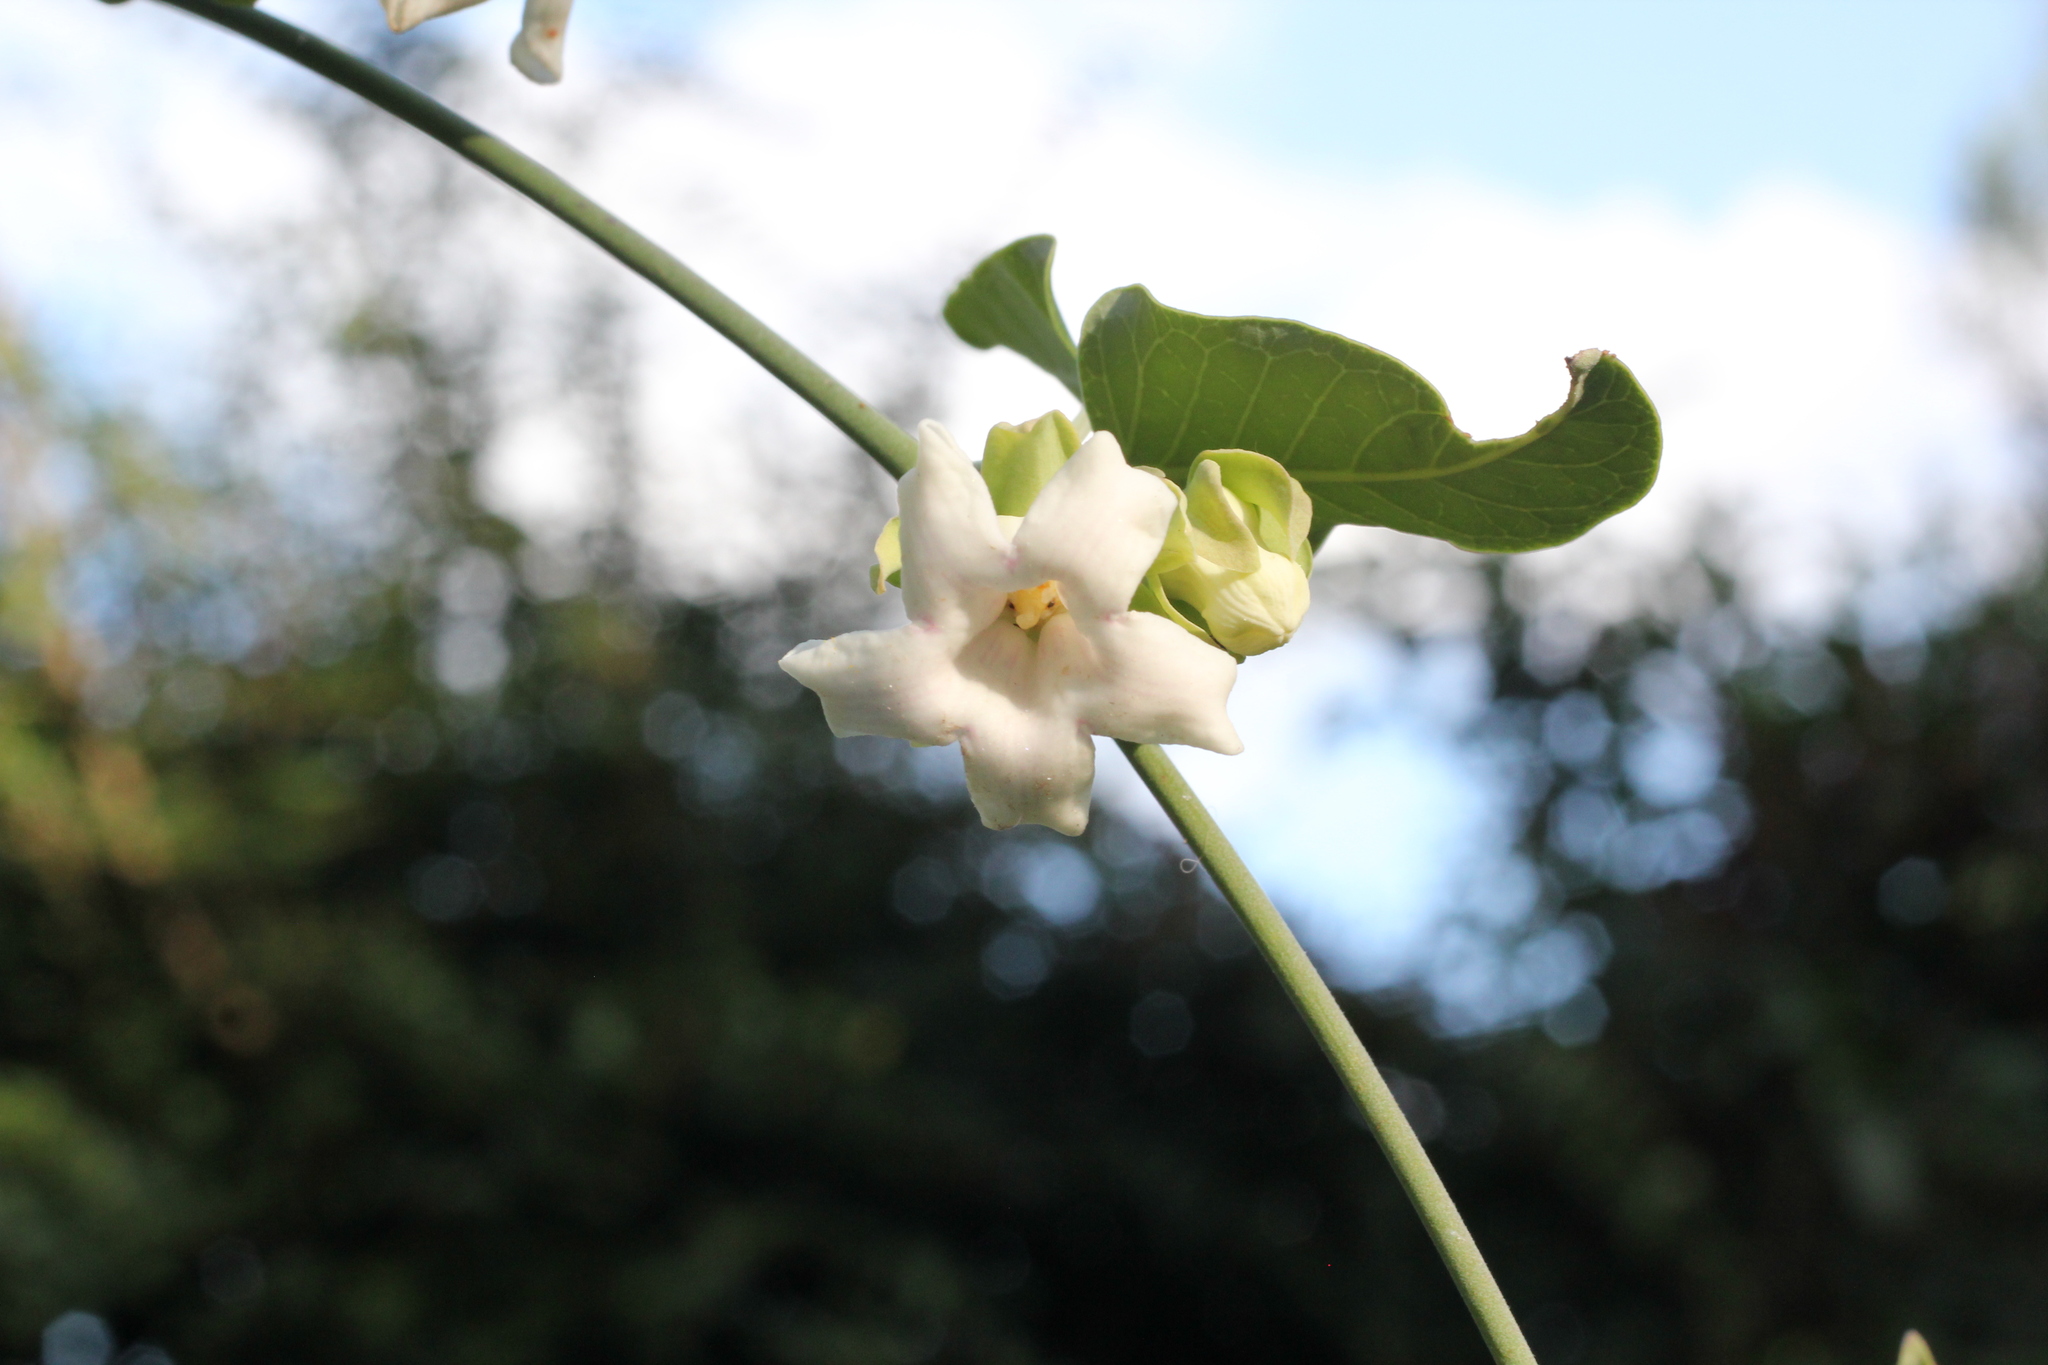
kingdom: Plantae
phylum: Tracheophyta
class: Magnoliopsida
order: Gentianales
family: Apocynaceae
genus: Araujia
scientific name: Araujia sericifera
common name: White bladderflower
